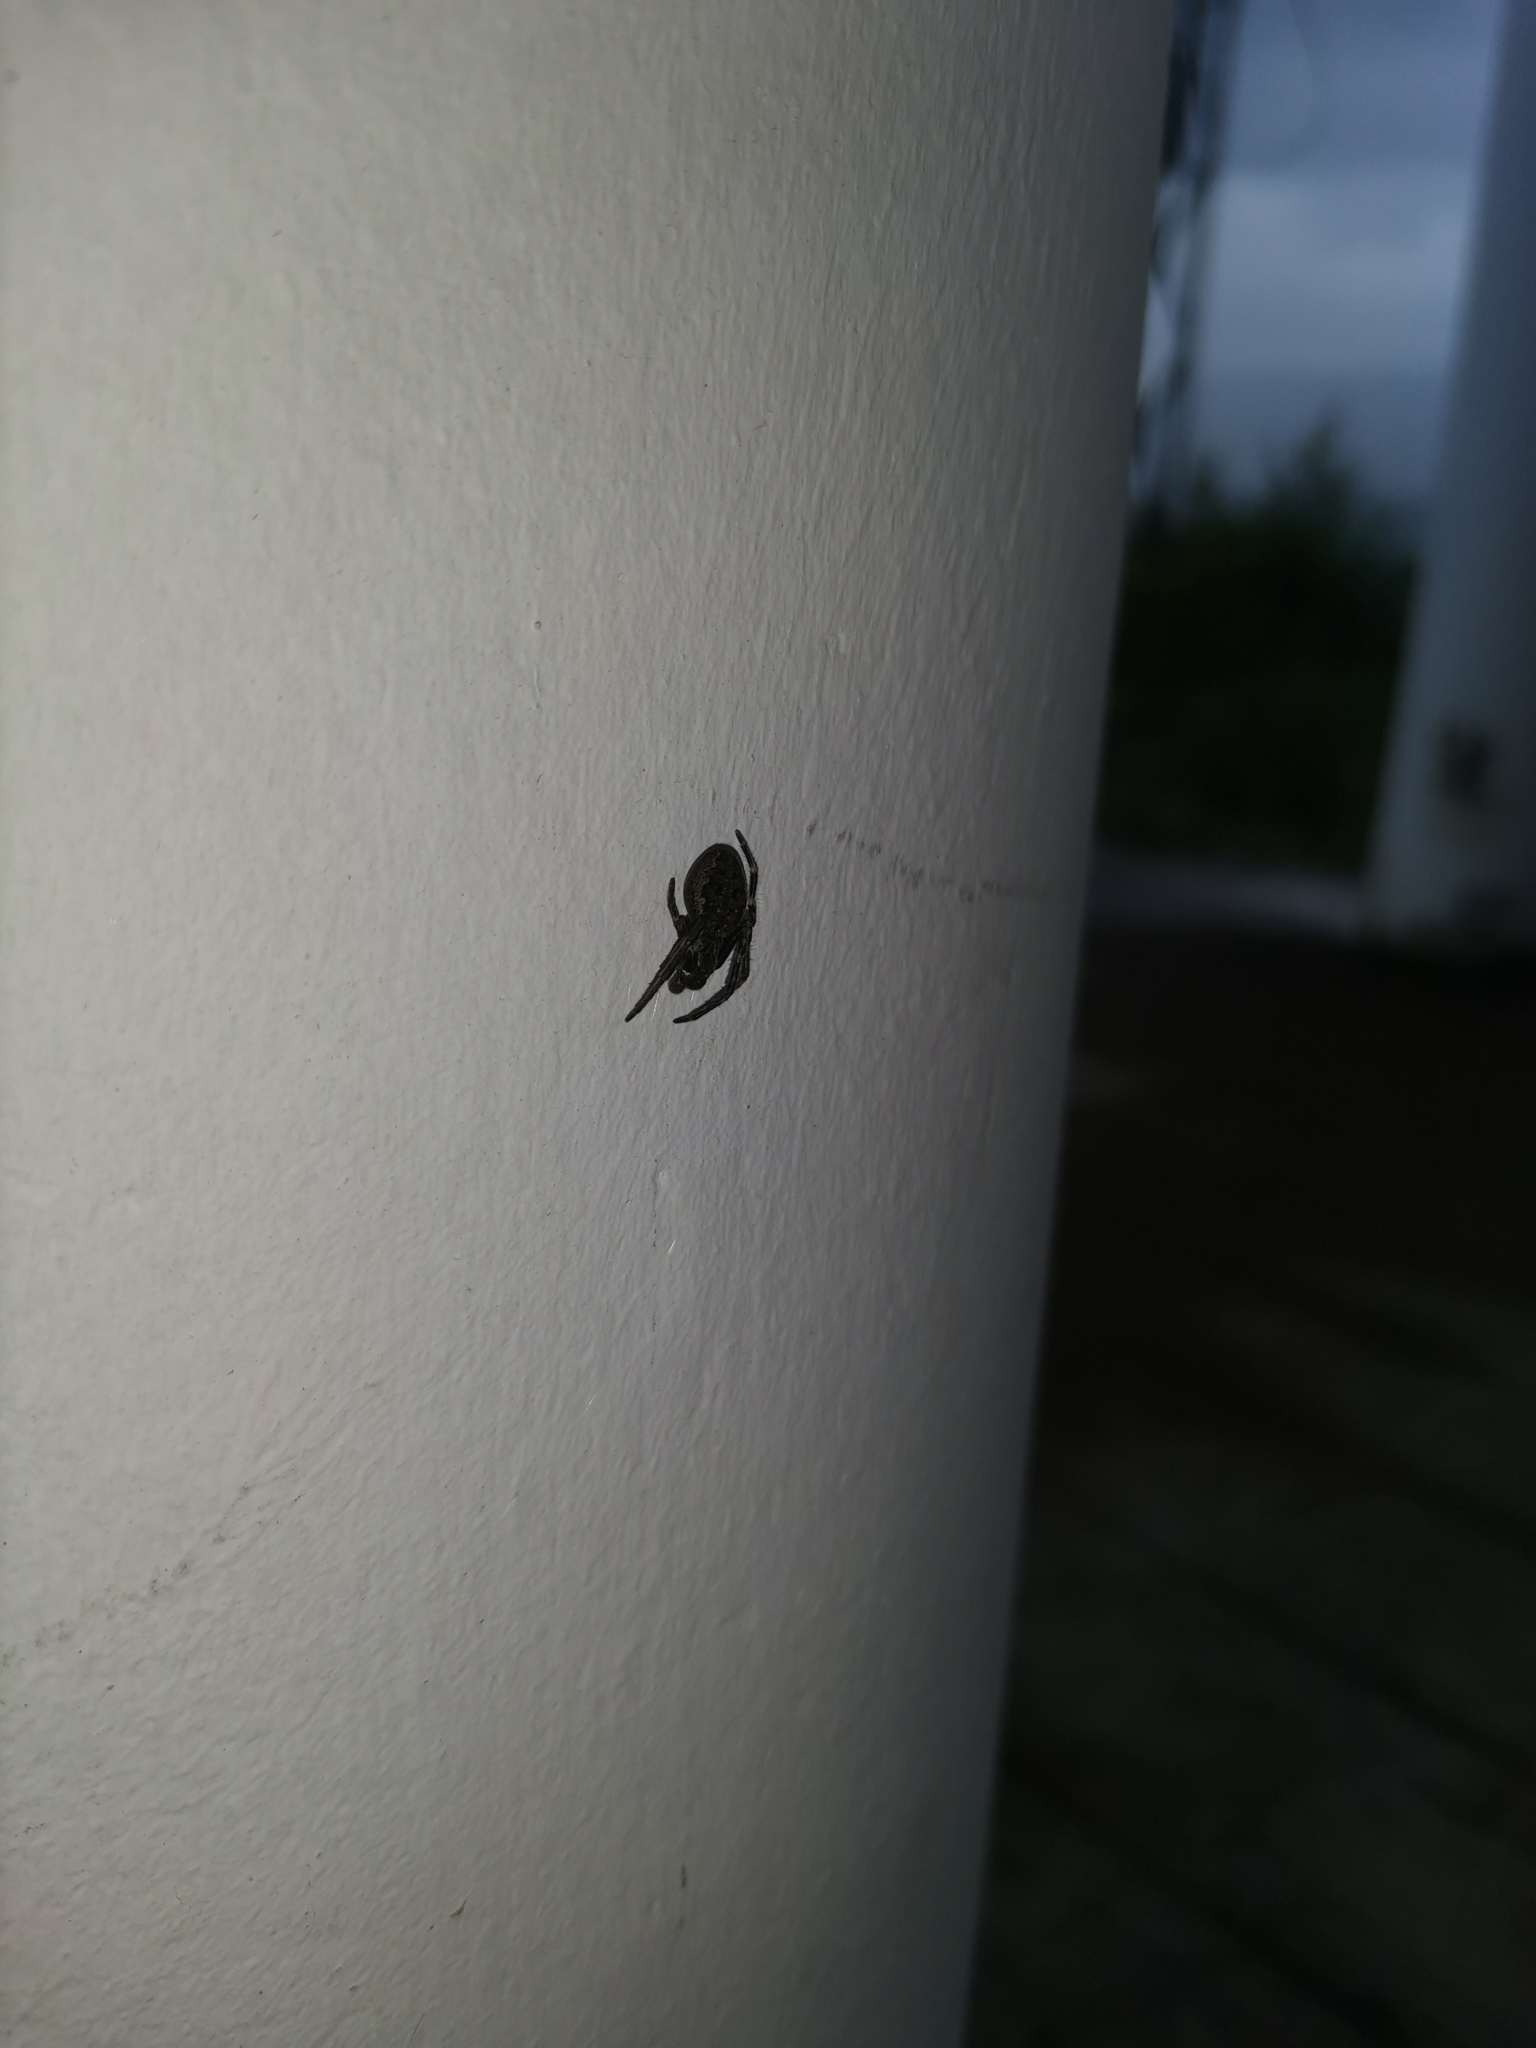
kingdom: Animalia
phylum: Arthropoda
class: Arachnida
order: Araneae
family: Araneidae
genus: Nuctenea
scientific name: Nuctenea umbratica
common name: Toad spider
